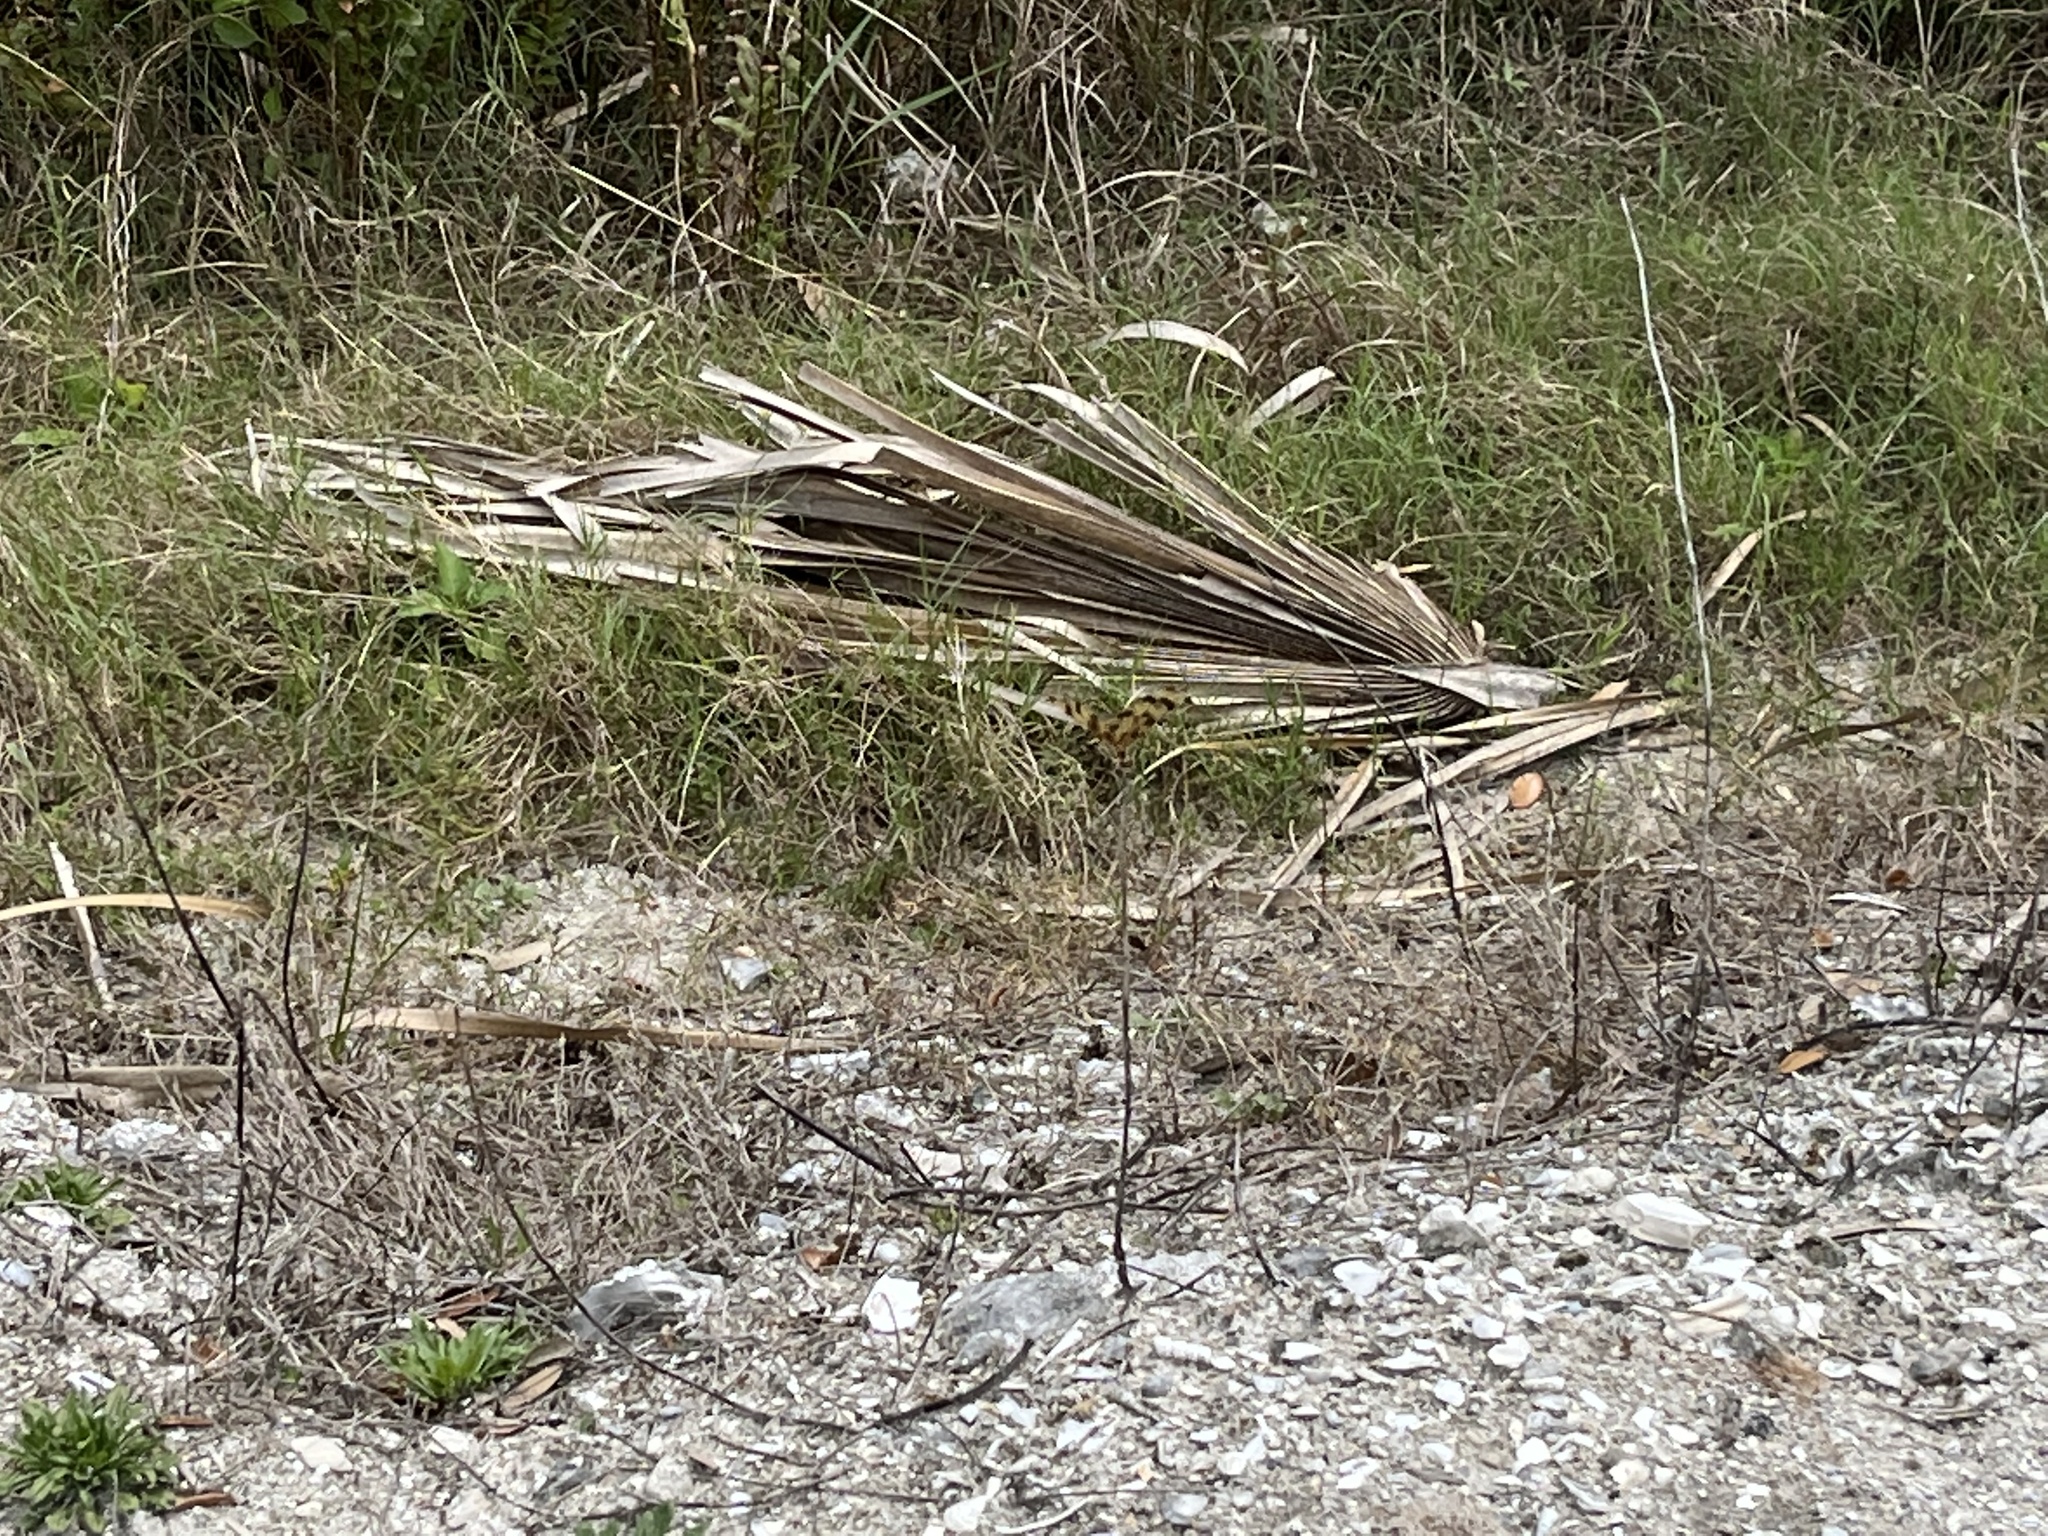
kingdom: Animalia
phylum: Arthropoda
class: Insecta
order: Odonata
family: Libellulidae
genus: Celithemis
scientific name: Celithemis eponina
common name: Halloween pennant
